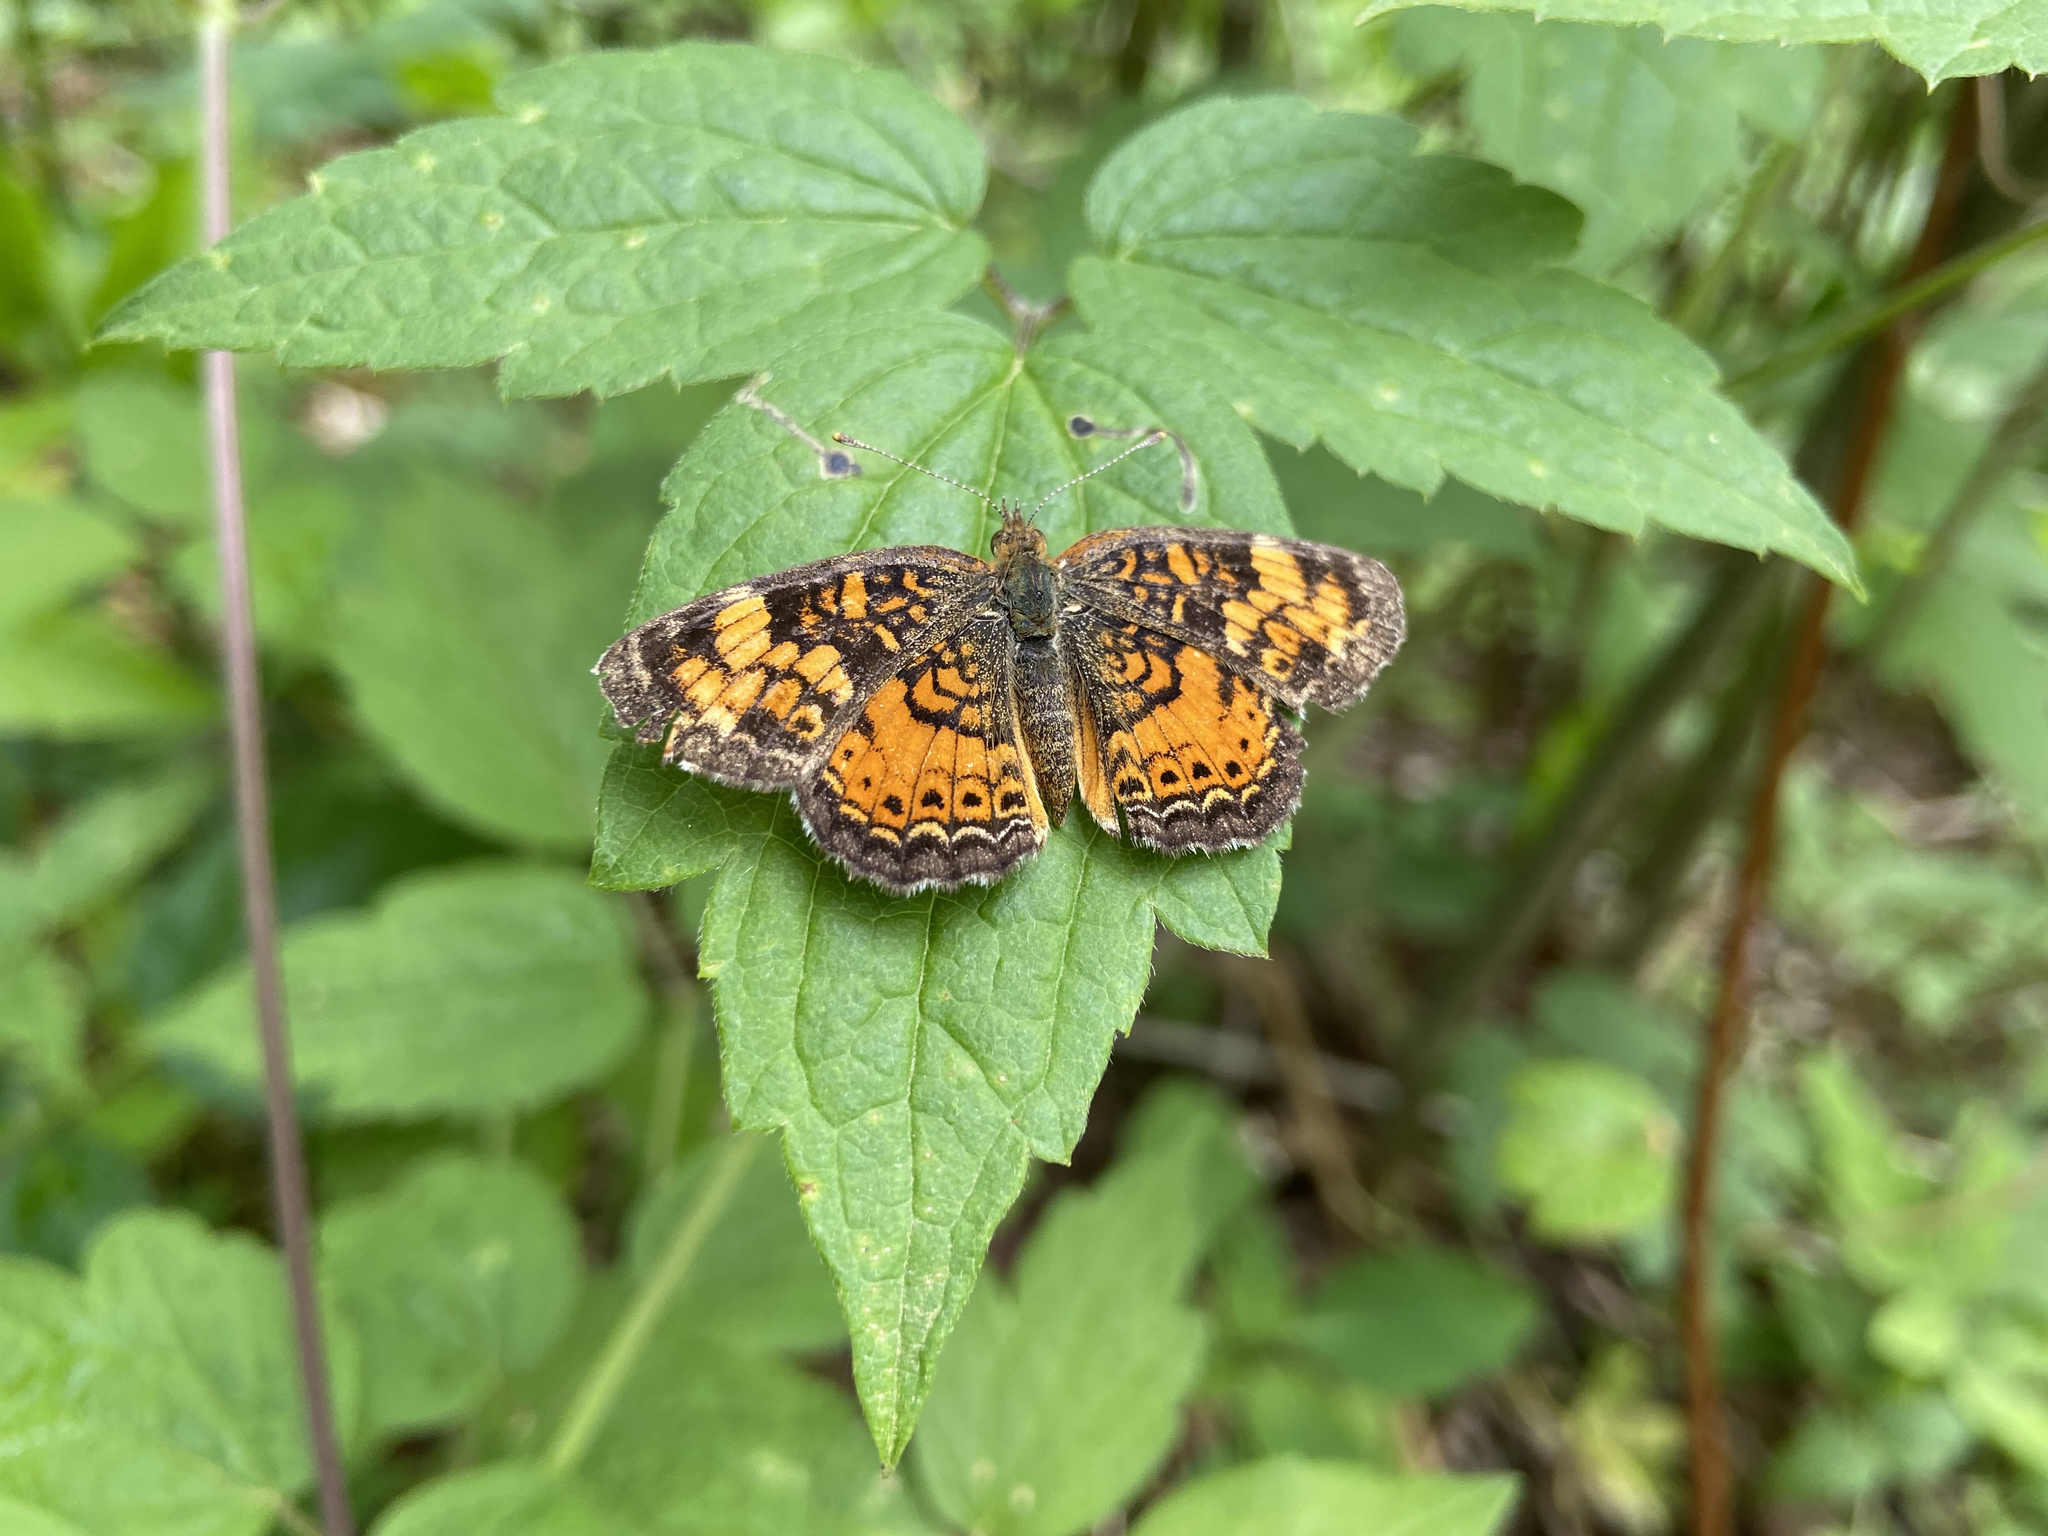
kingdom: Animalia
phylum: Arthropoda
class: Insecta
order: Lepidoptera
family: Nymphalidae
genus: Phyciodes
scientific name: Phyciodes tharos
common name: Pearl crescent
